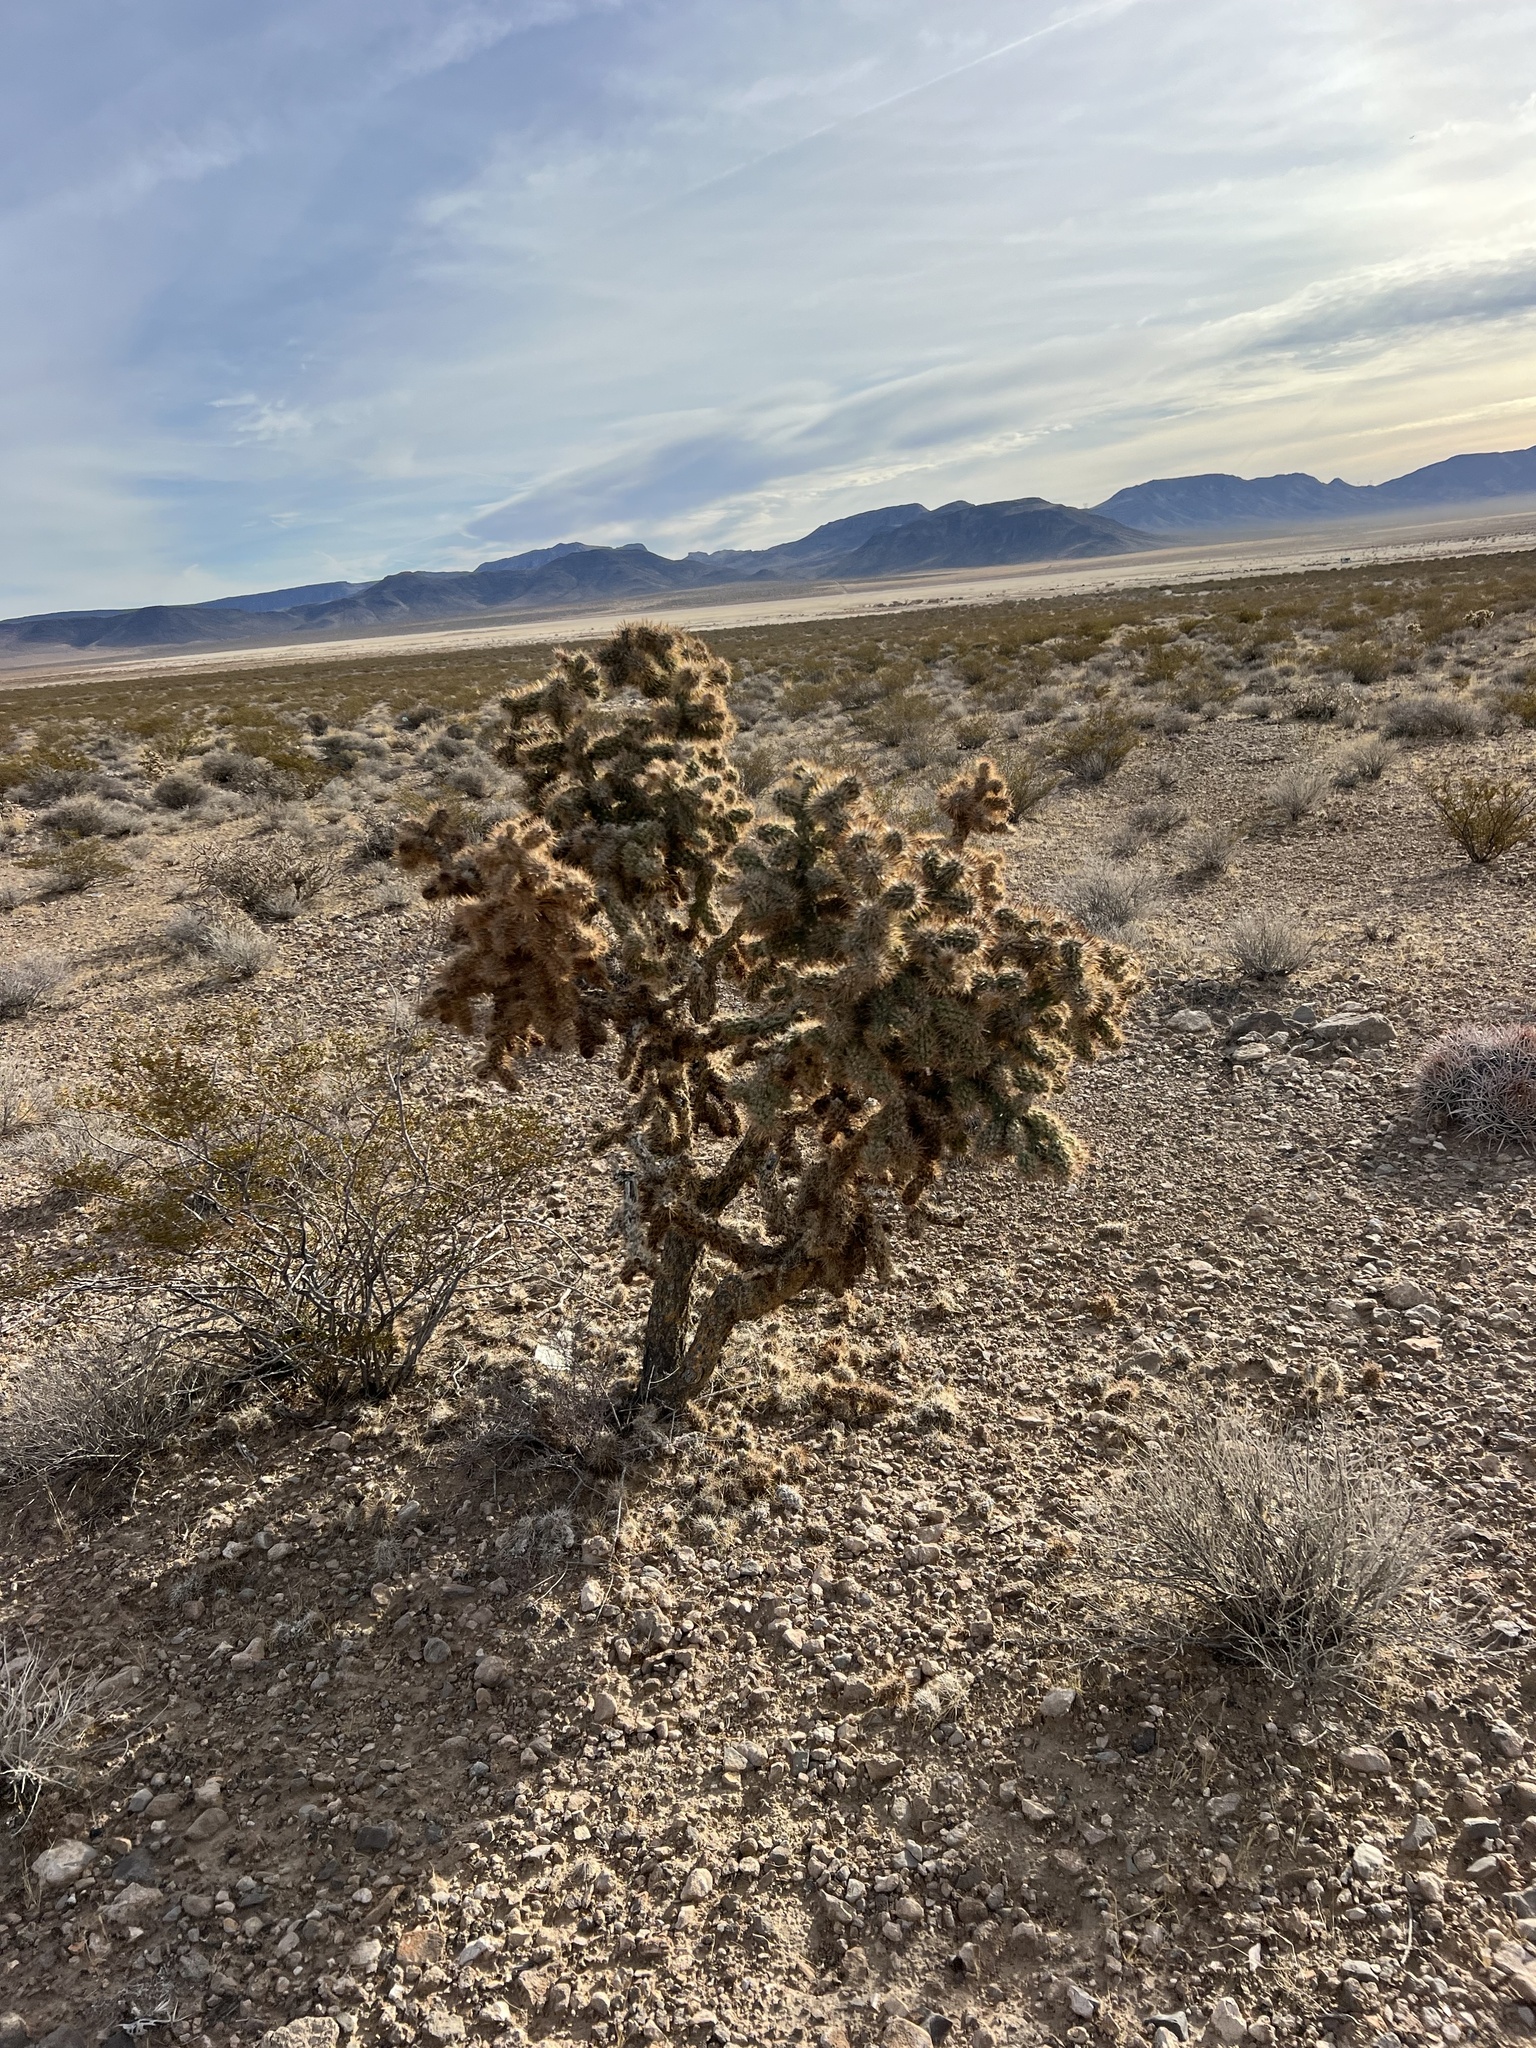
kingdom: Plantae
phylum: Tracheophyta
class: Magnoliopsida
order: Caryophyllales
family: Cactaceae
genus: Cylindropuntia
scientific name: Cylindropuntia echinocarpa
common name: Ground cholla
